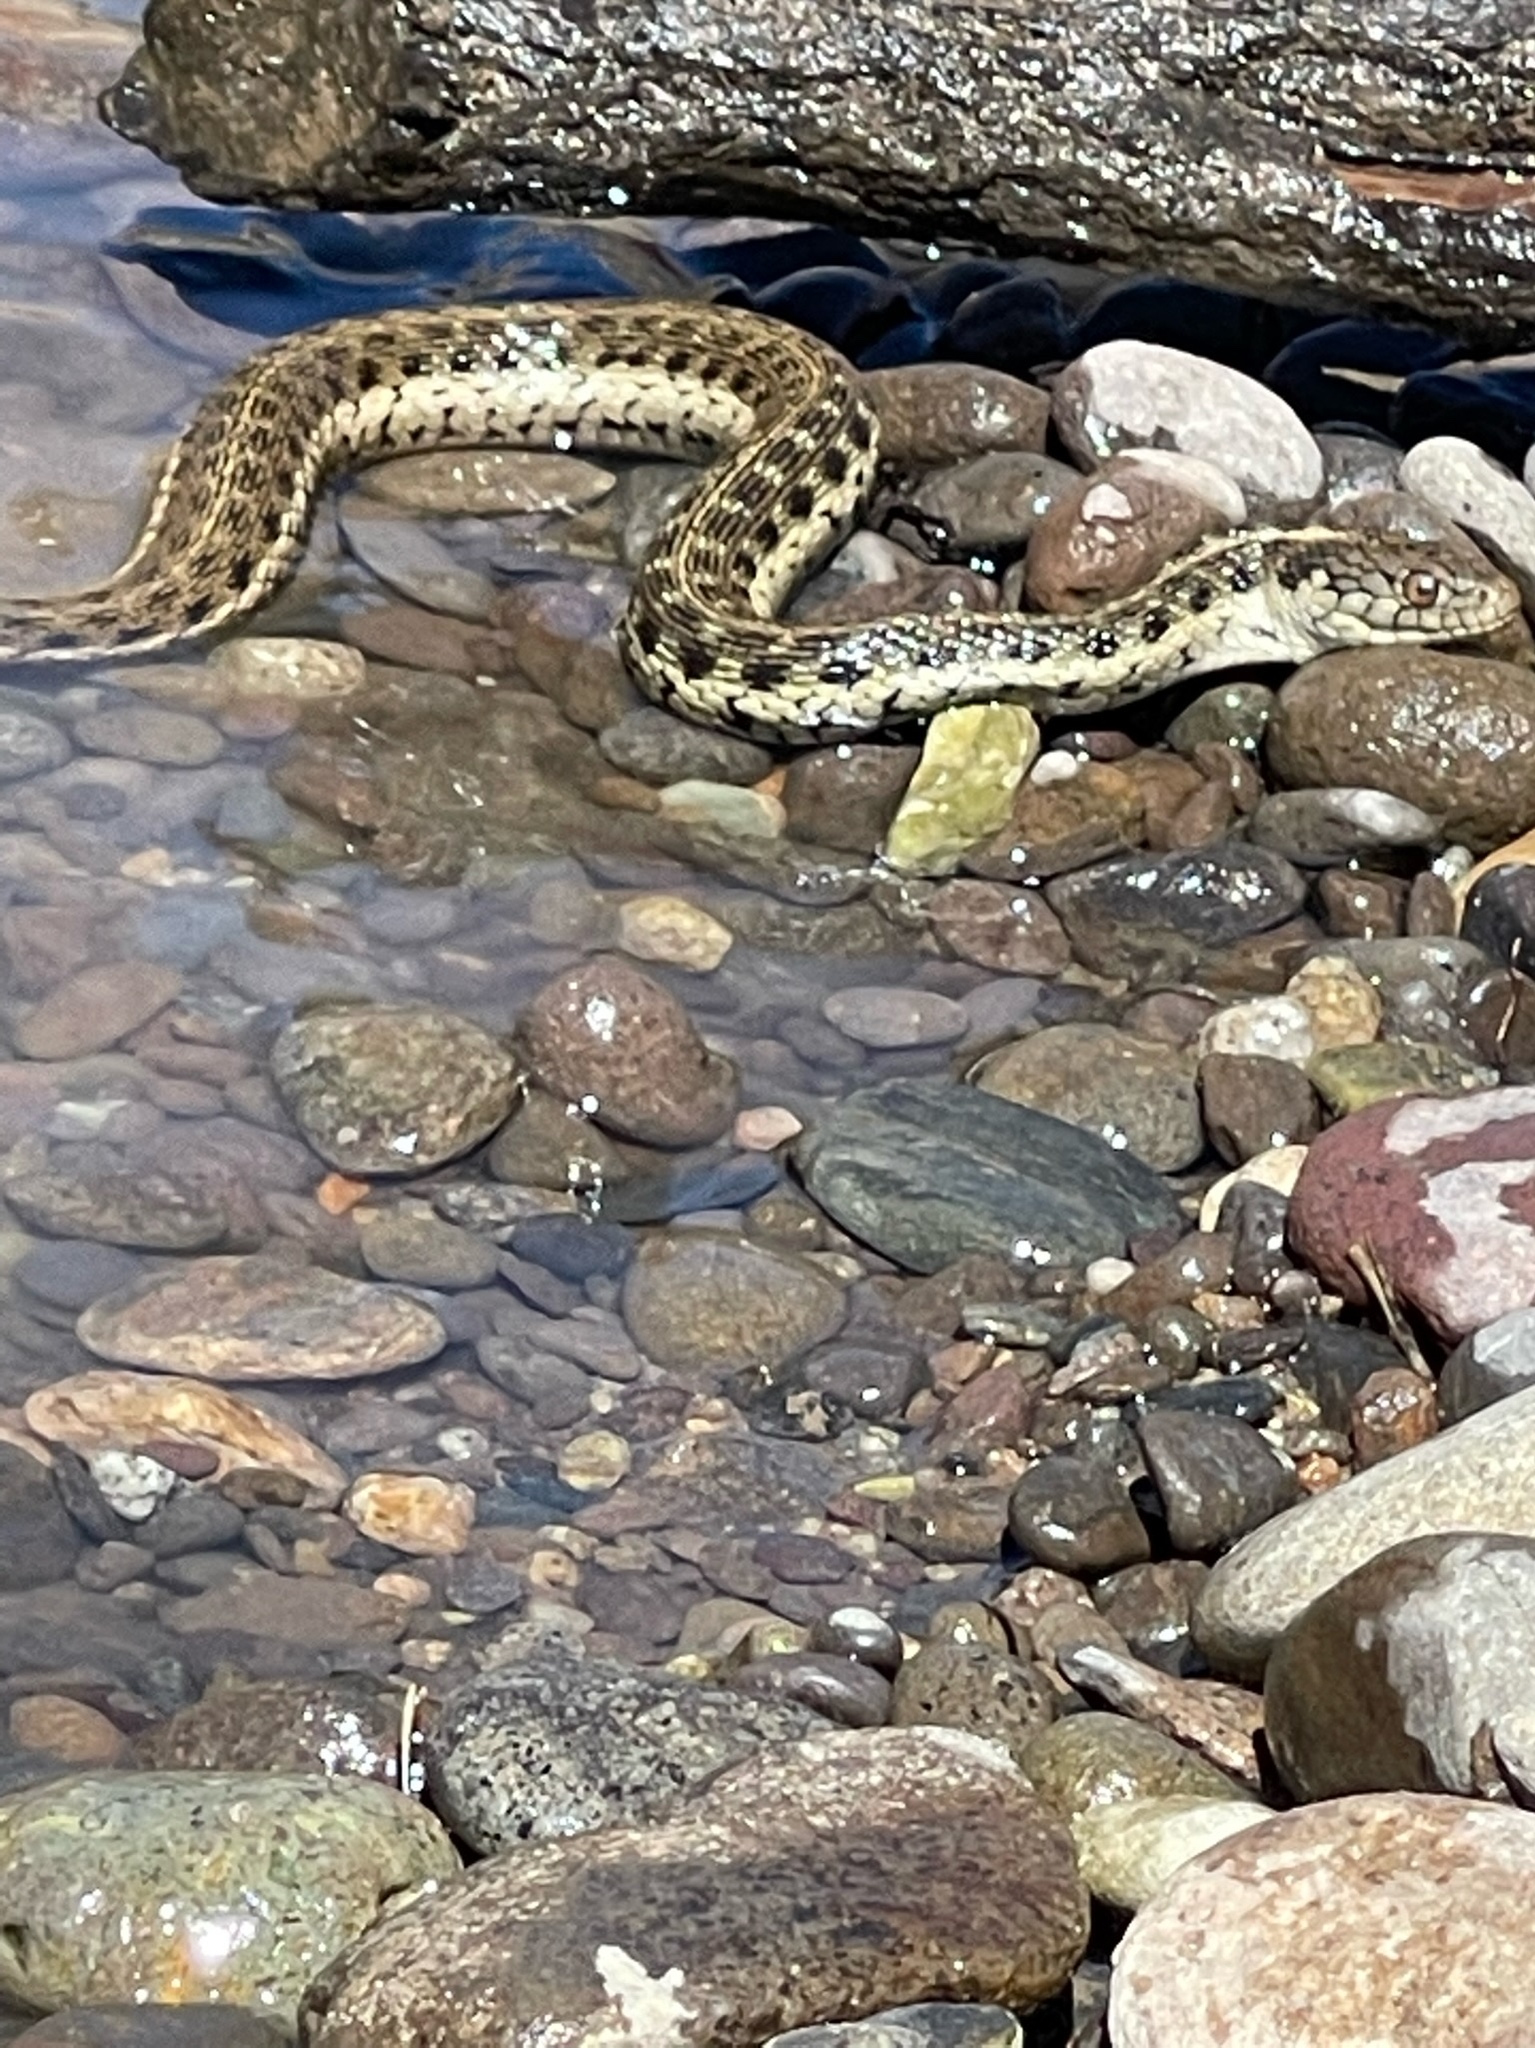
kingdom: Animalia
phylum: Chordata
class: Squamata
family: Colubridae
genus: Thamnophis
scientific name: Thamnophis couchii
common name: Western aquatic garter snake
